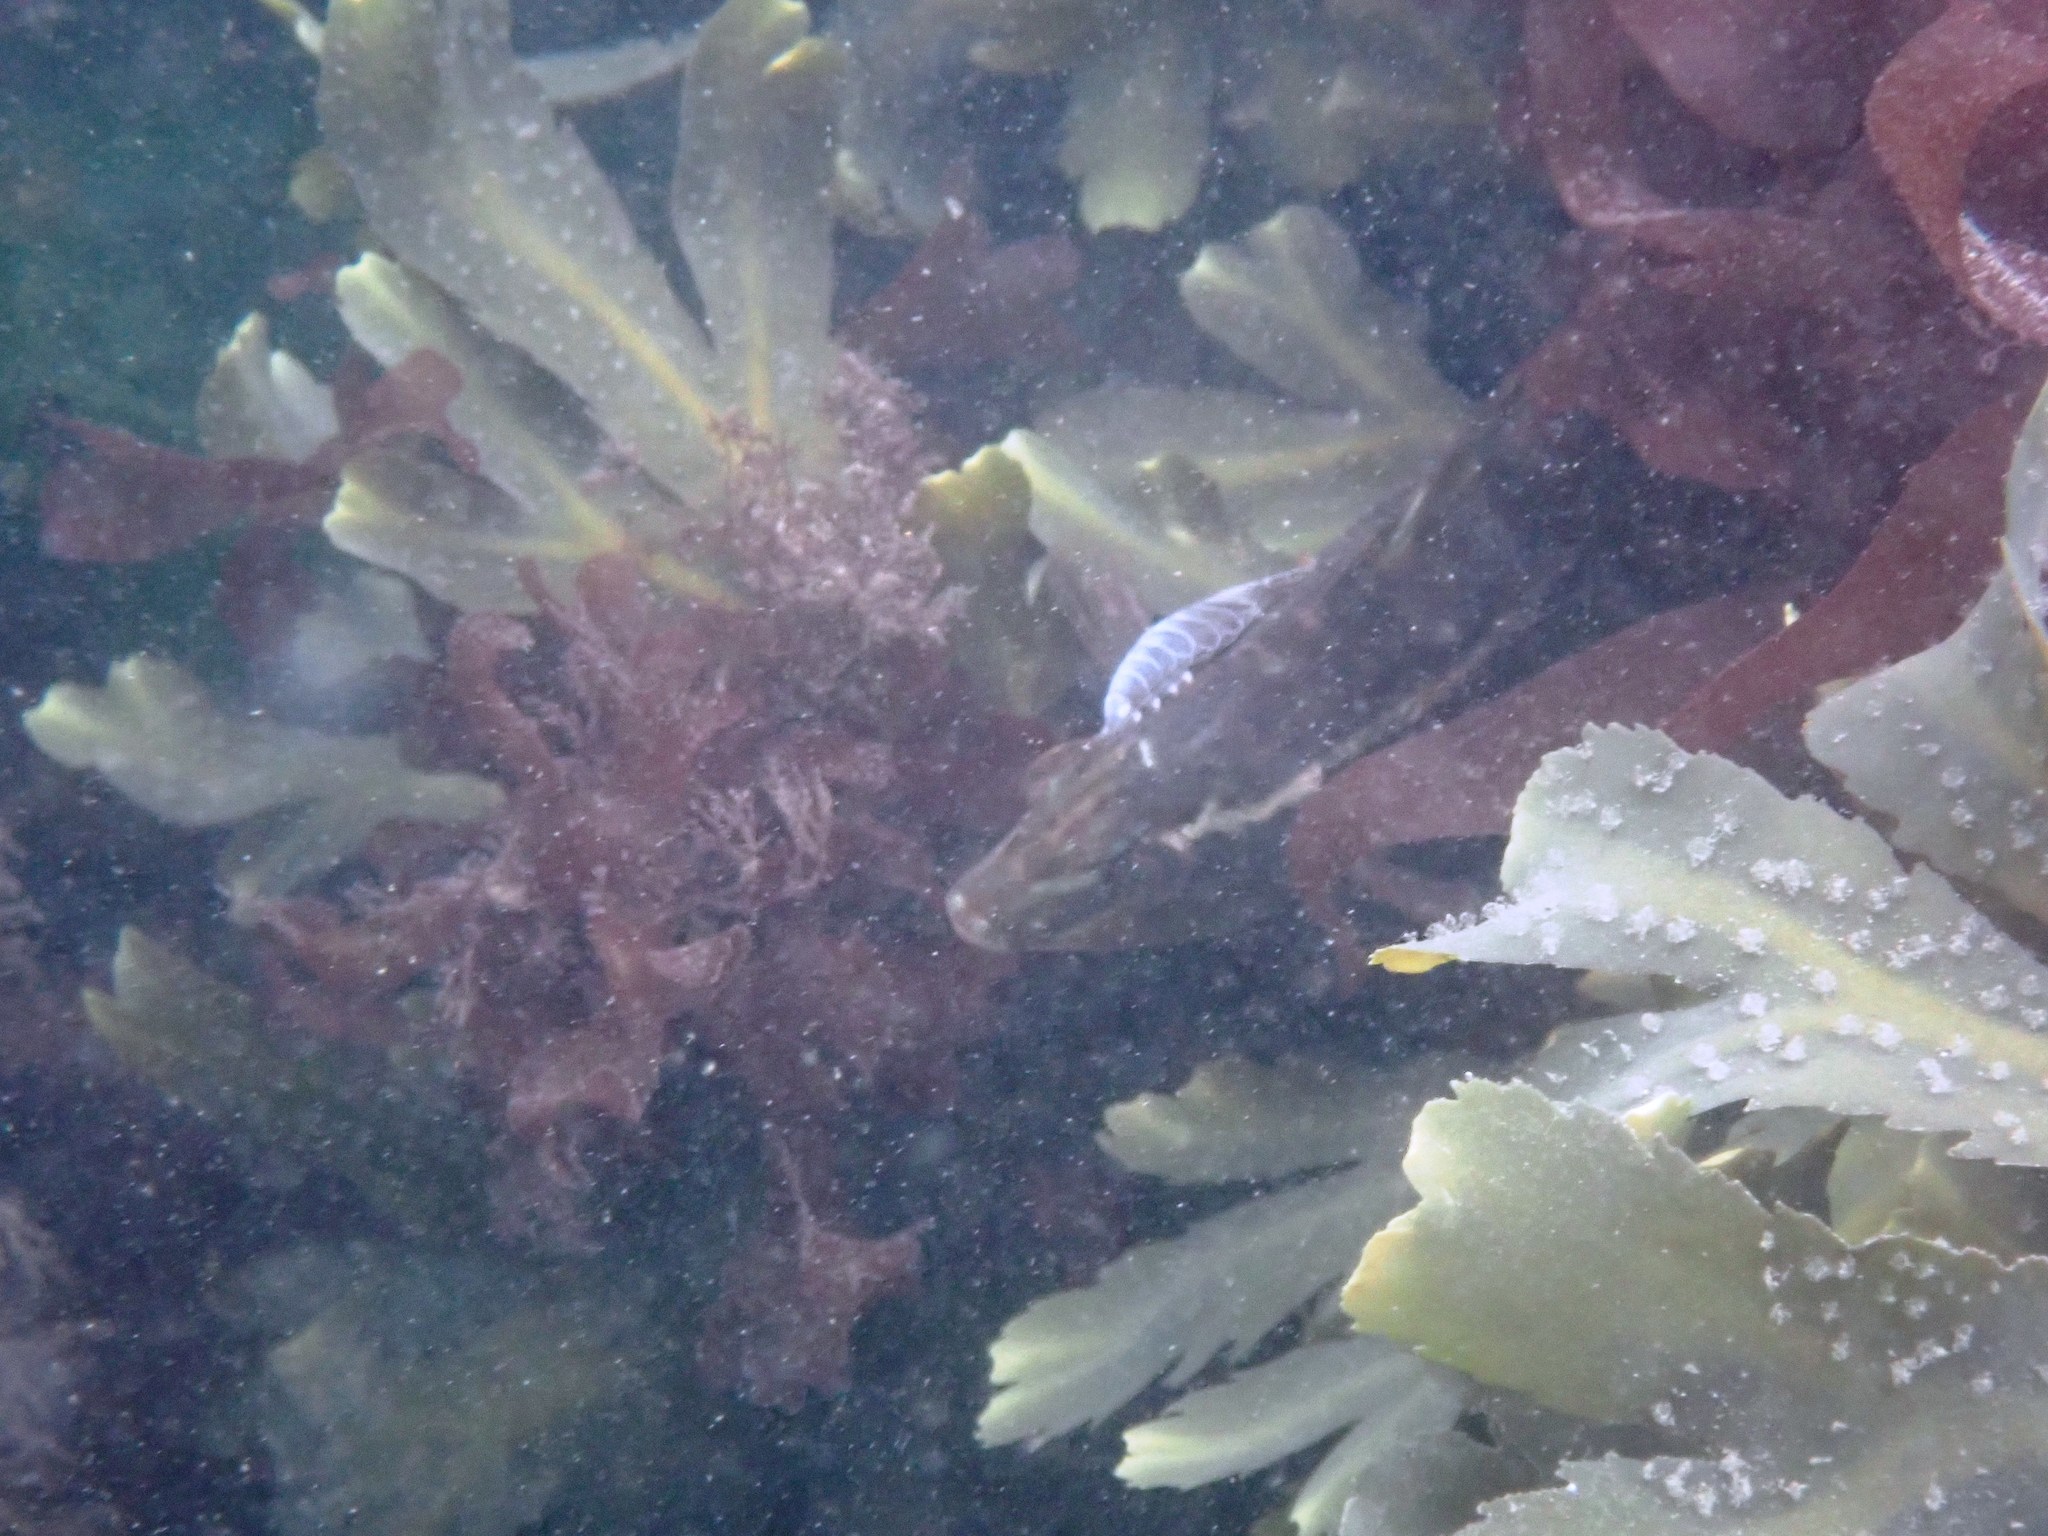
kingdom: Animalia
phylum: Arthropoda
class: Malacostraca
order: Isopoda
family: Cymothoidae
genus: Anilocra
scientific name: Anilocra
